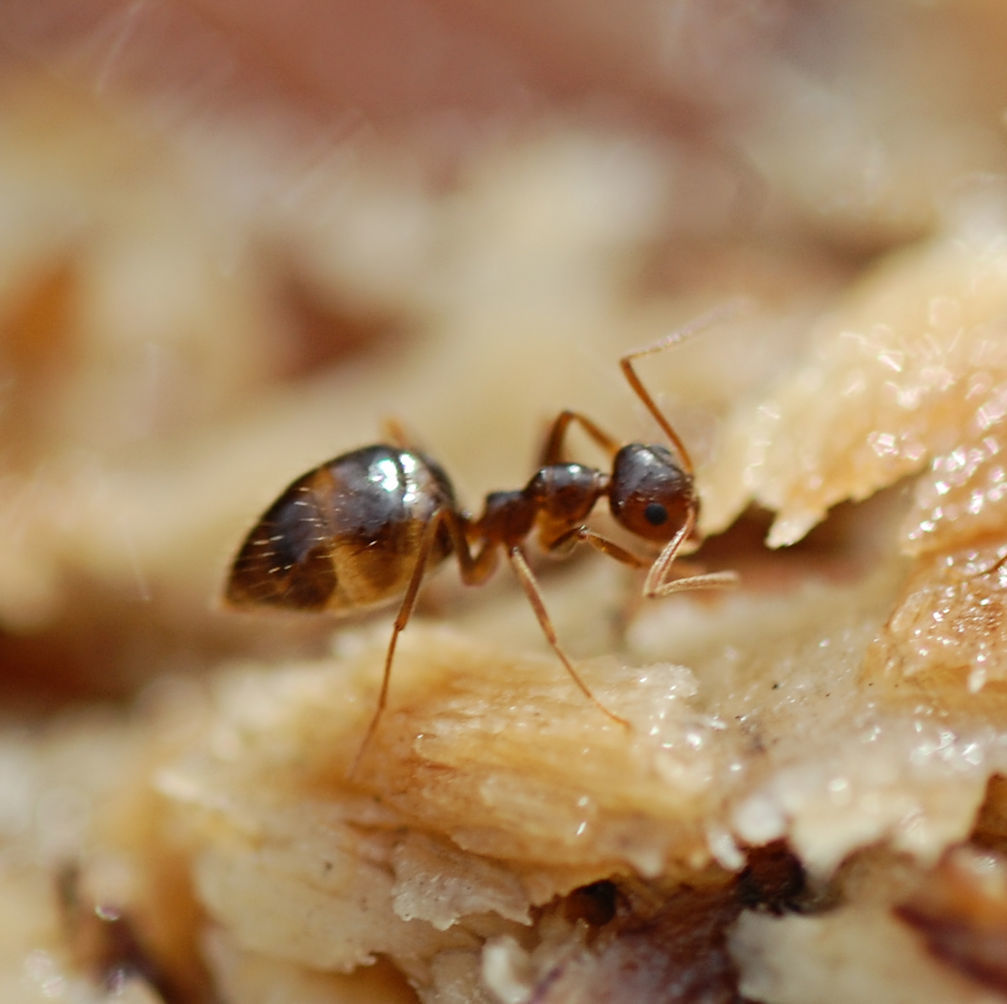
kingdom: Animalia
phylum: Arthropoda
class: Insecta
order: Hymenoptera
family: Formicidae
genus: Prenolepis
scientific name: Prenolepis imparis
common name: Small honey ant
